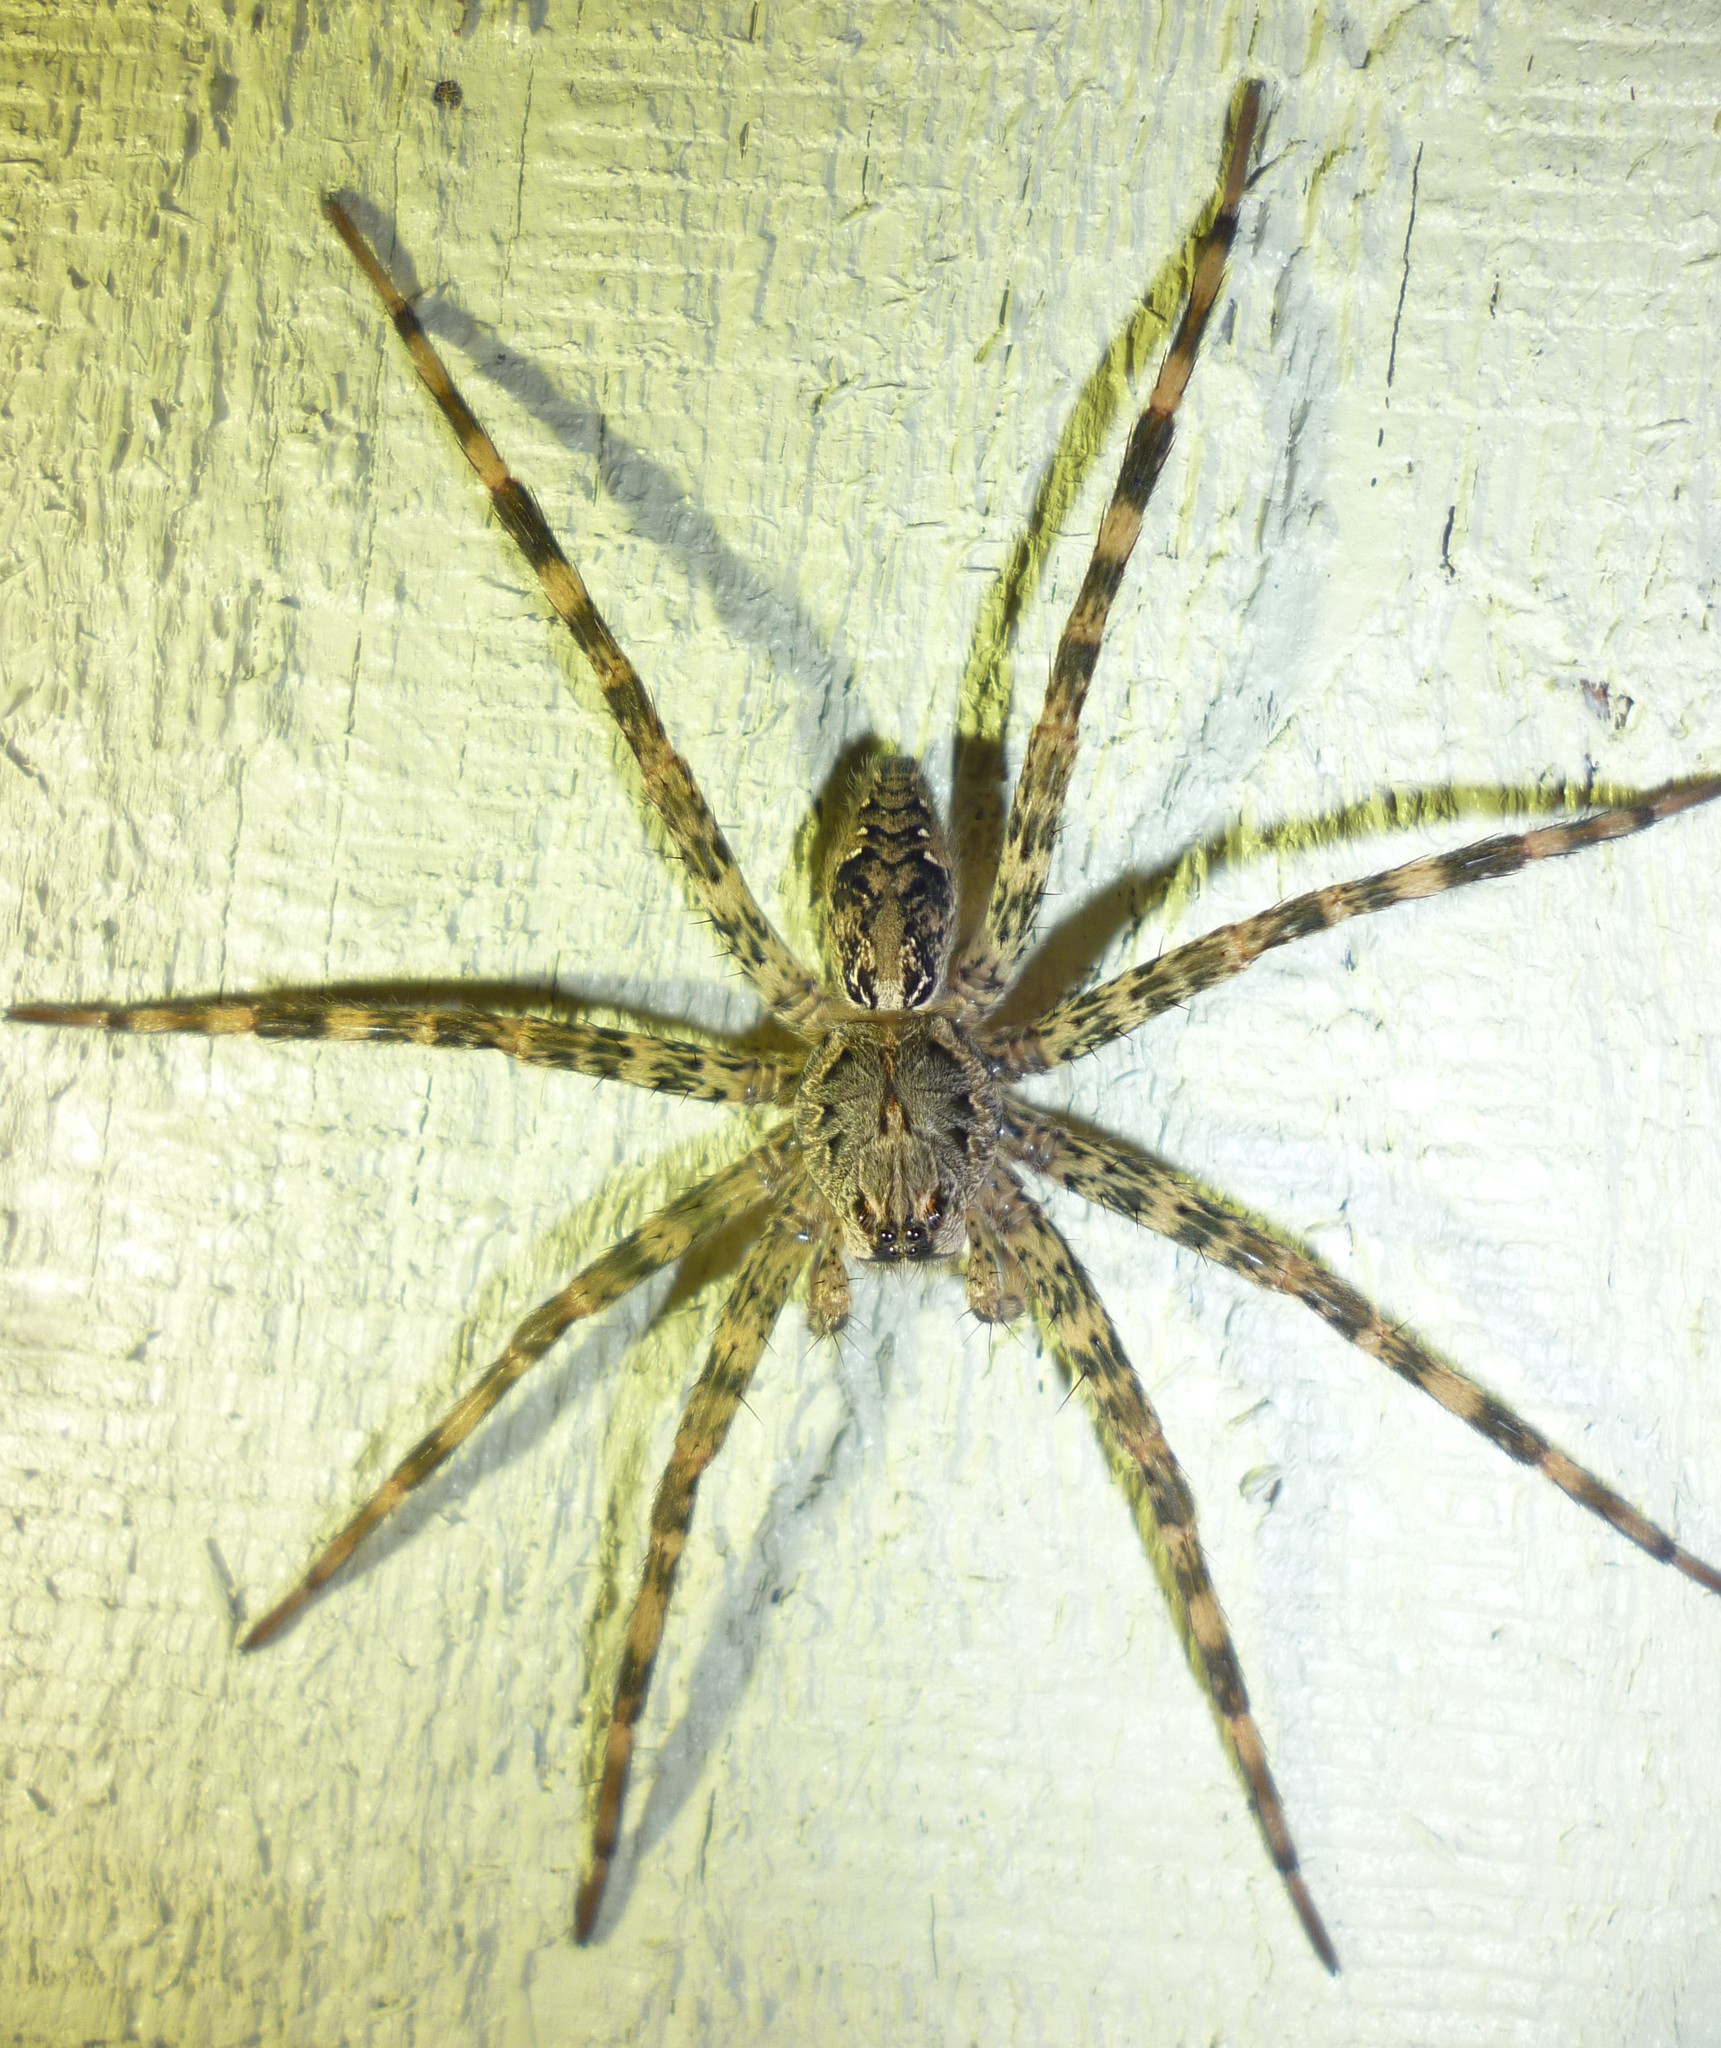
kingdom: Animalia
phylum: Arthropoda
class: Arachnida
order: Araneae
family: Pisauridae
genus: Dolomedes
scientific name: Dolomedes tenebrosus
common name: Dark fishing spider
